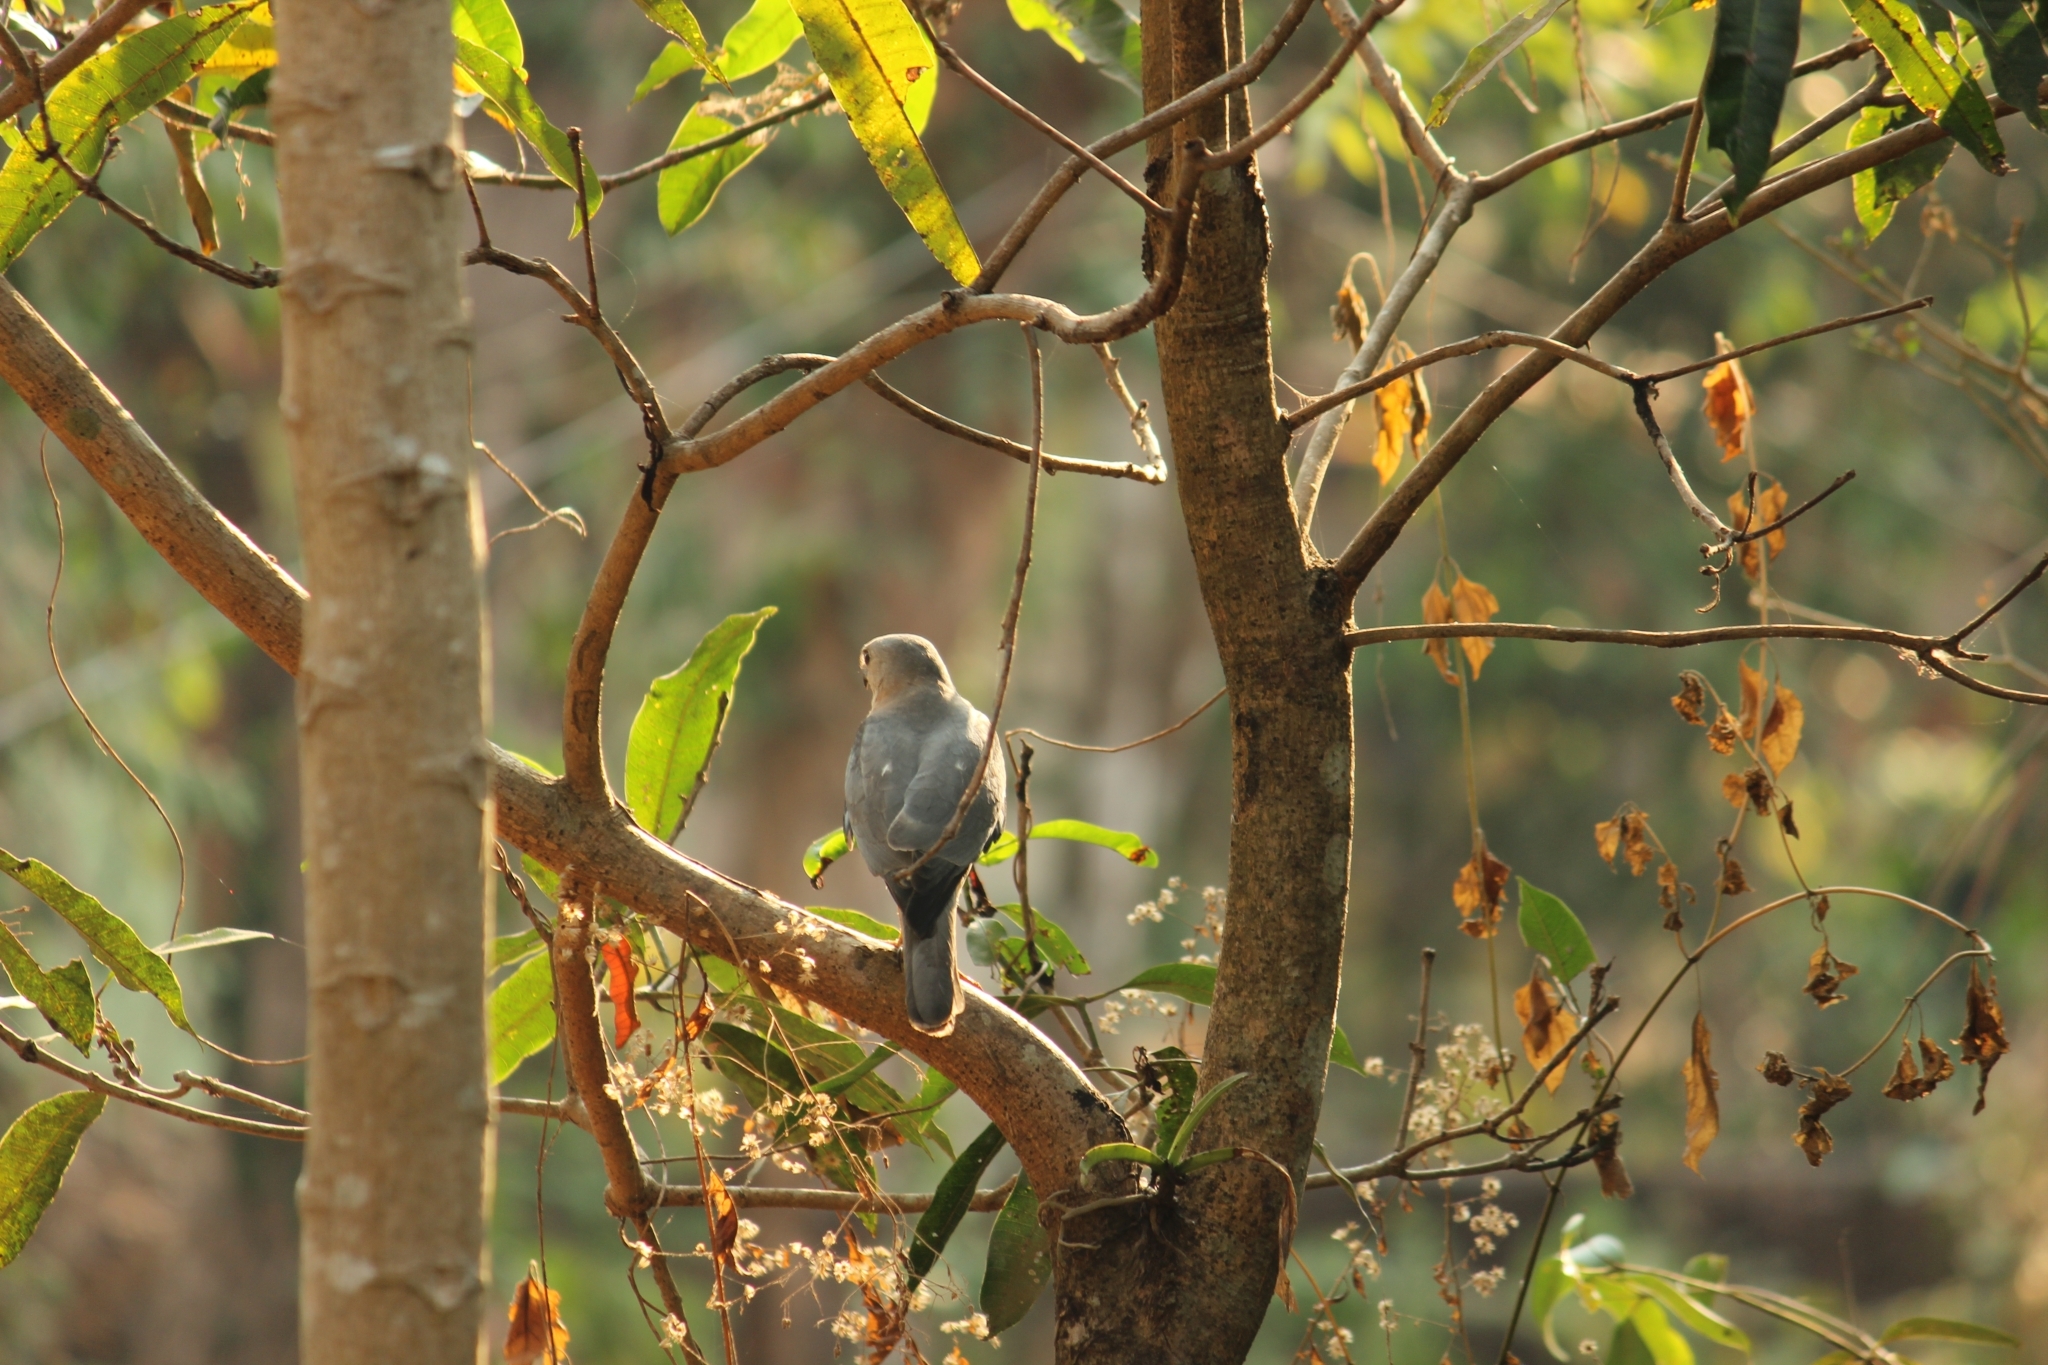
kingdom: Animalia
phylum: Chordata
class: Aves
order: Accipitriformes
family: Accipitridae
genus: Accipiter
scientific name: Accipiter badius
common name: Shikra
